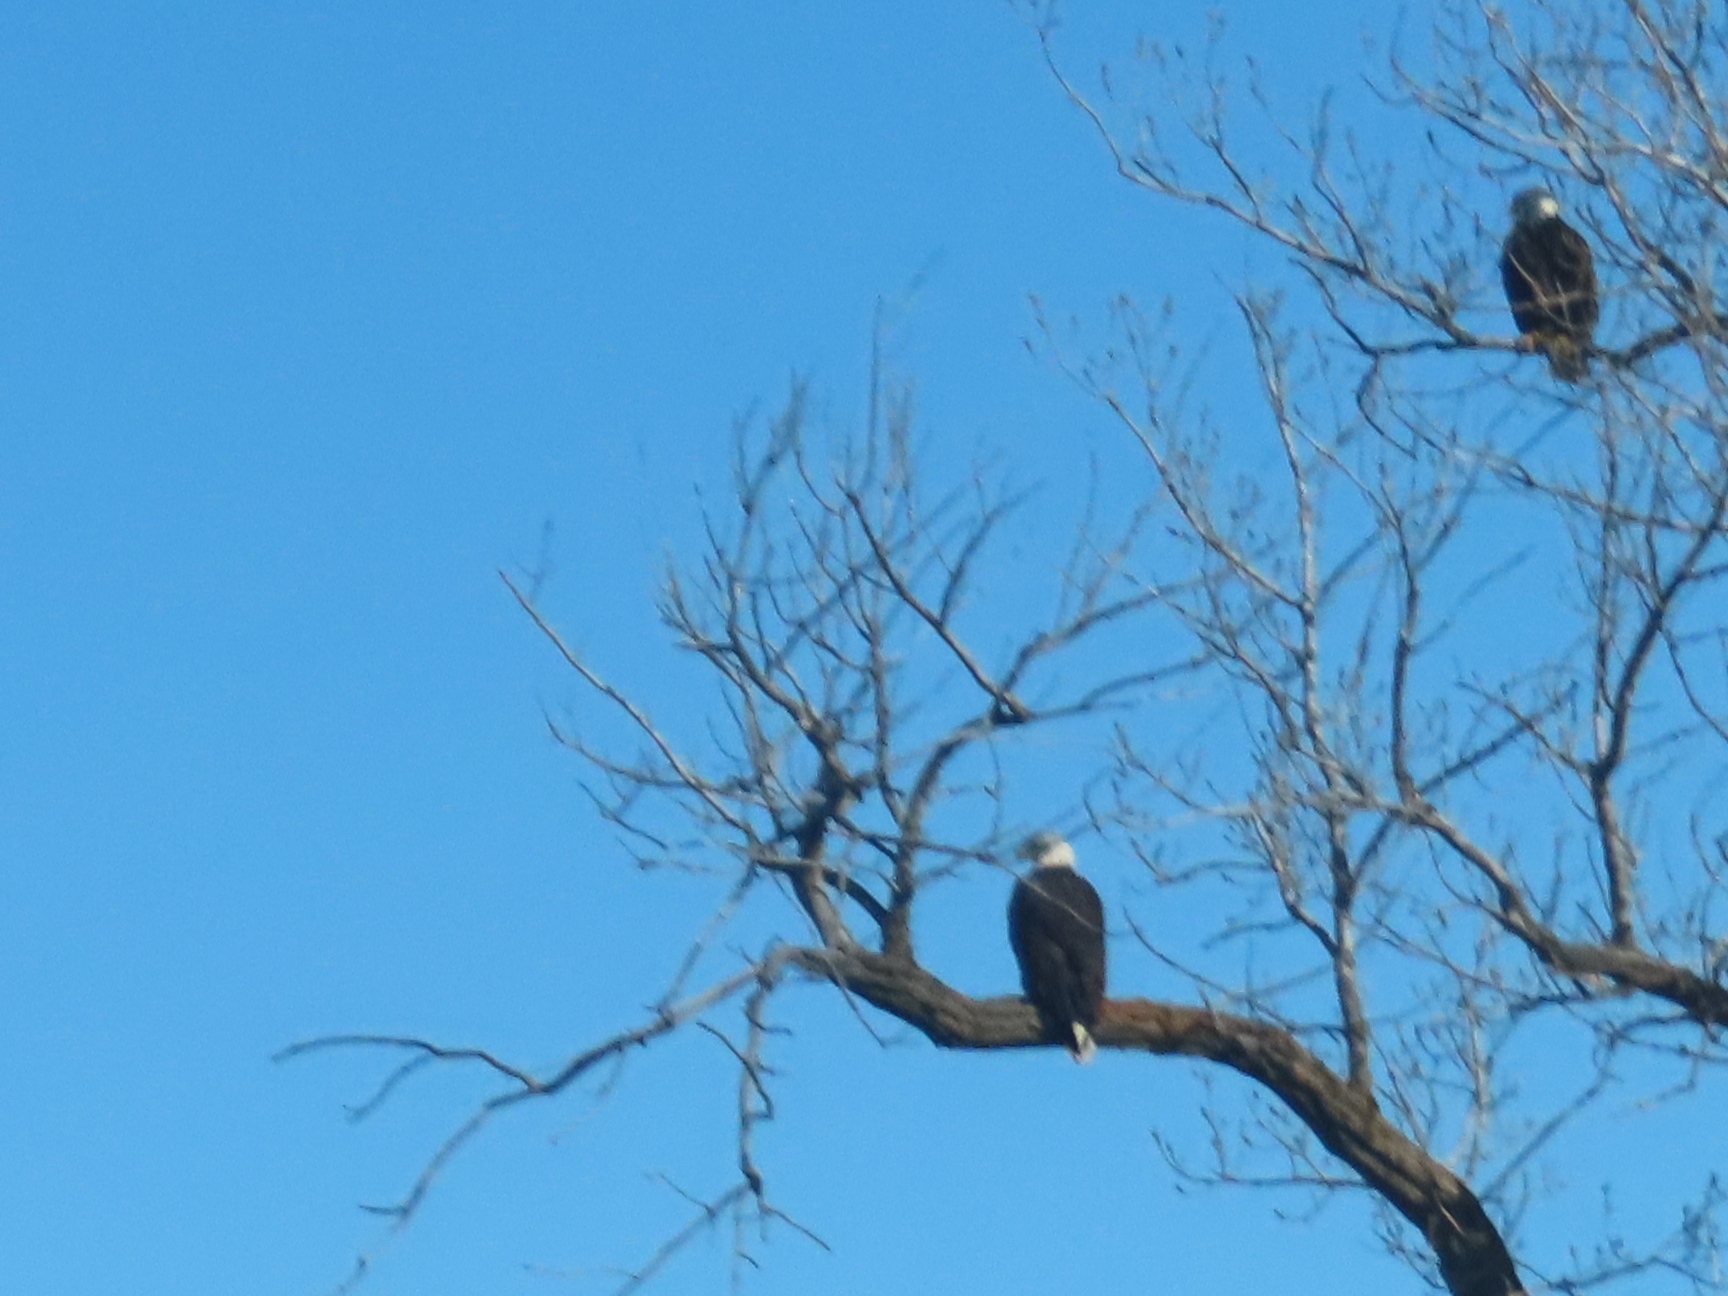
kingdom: Animalia
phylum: Chordata
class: Aves
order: Accipitriformes
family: Accipitridae
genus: Haliaeetus
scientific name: Haliaeetus leucocephalus
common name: Bald eagle
